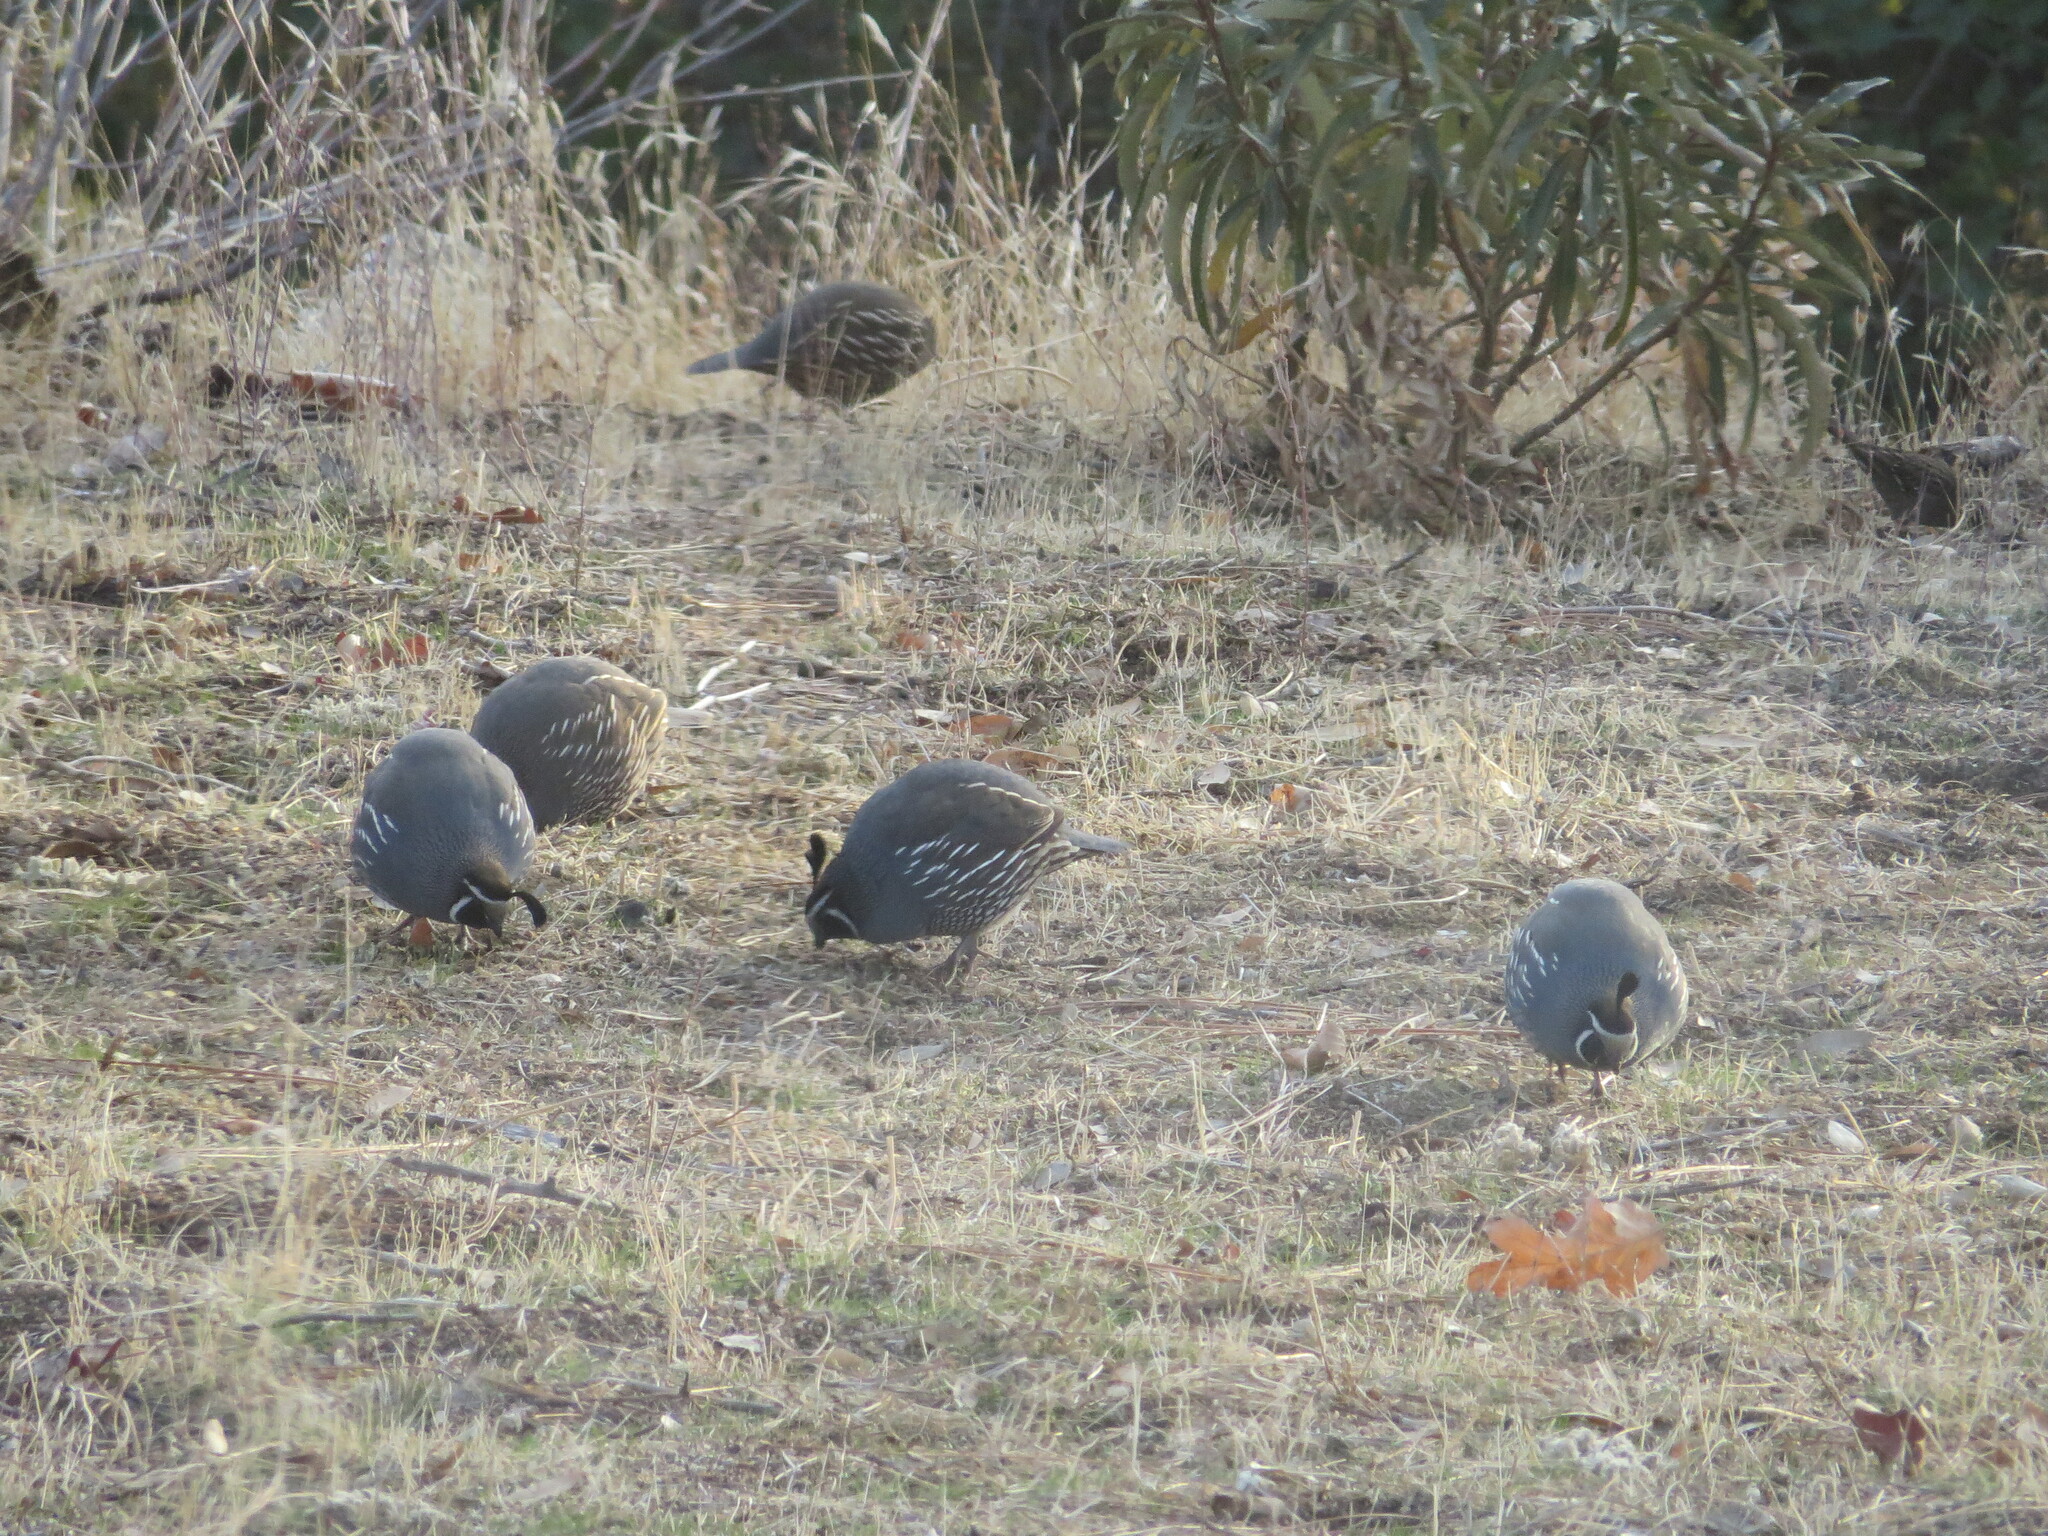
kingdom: Animalia
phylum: Chordata
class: Aves
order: Galliformes
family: Odontophoridae
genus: Callipepla
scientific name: Callipepla californica
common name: California quail
